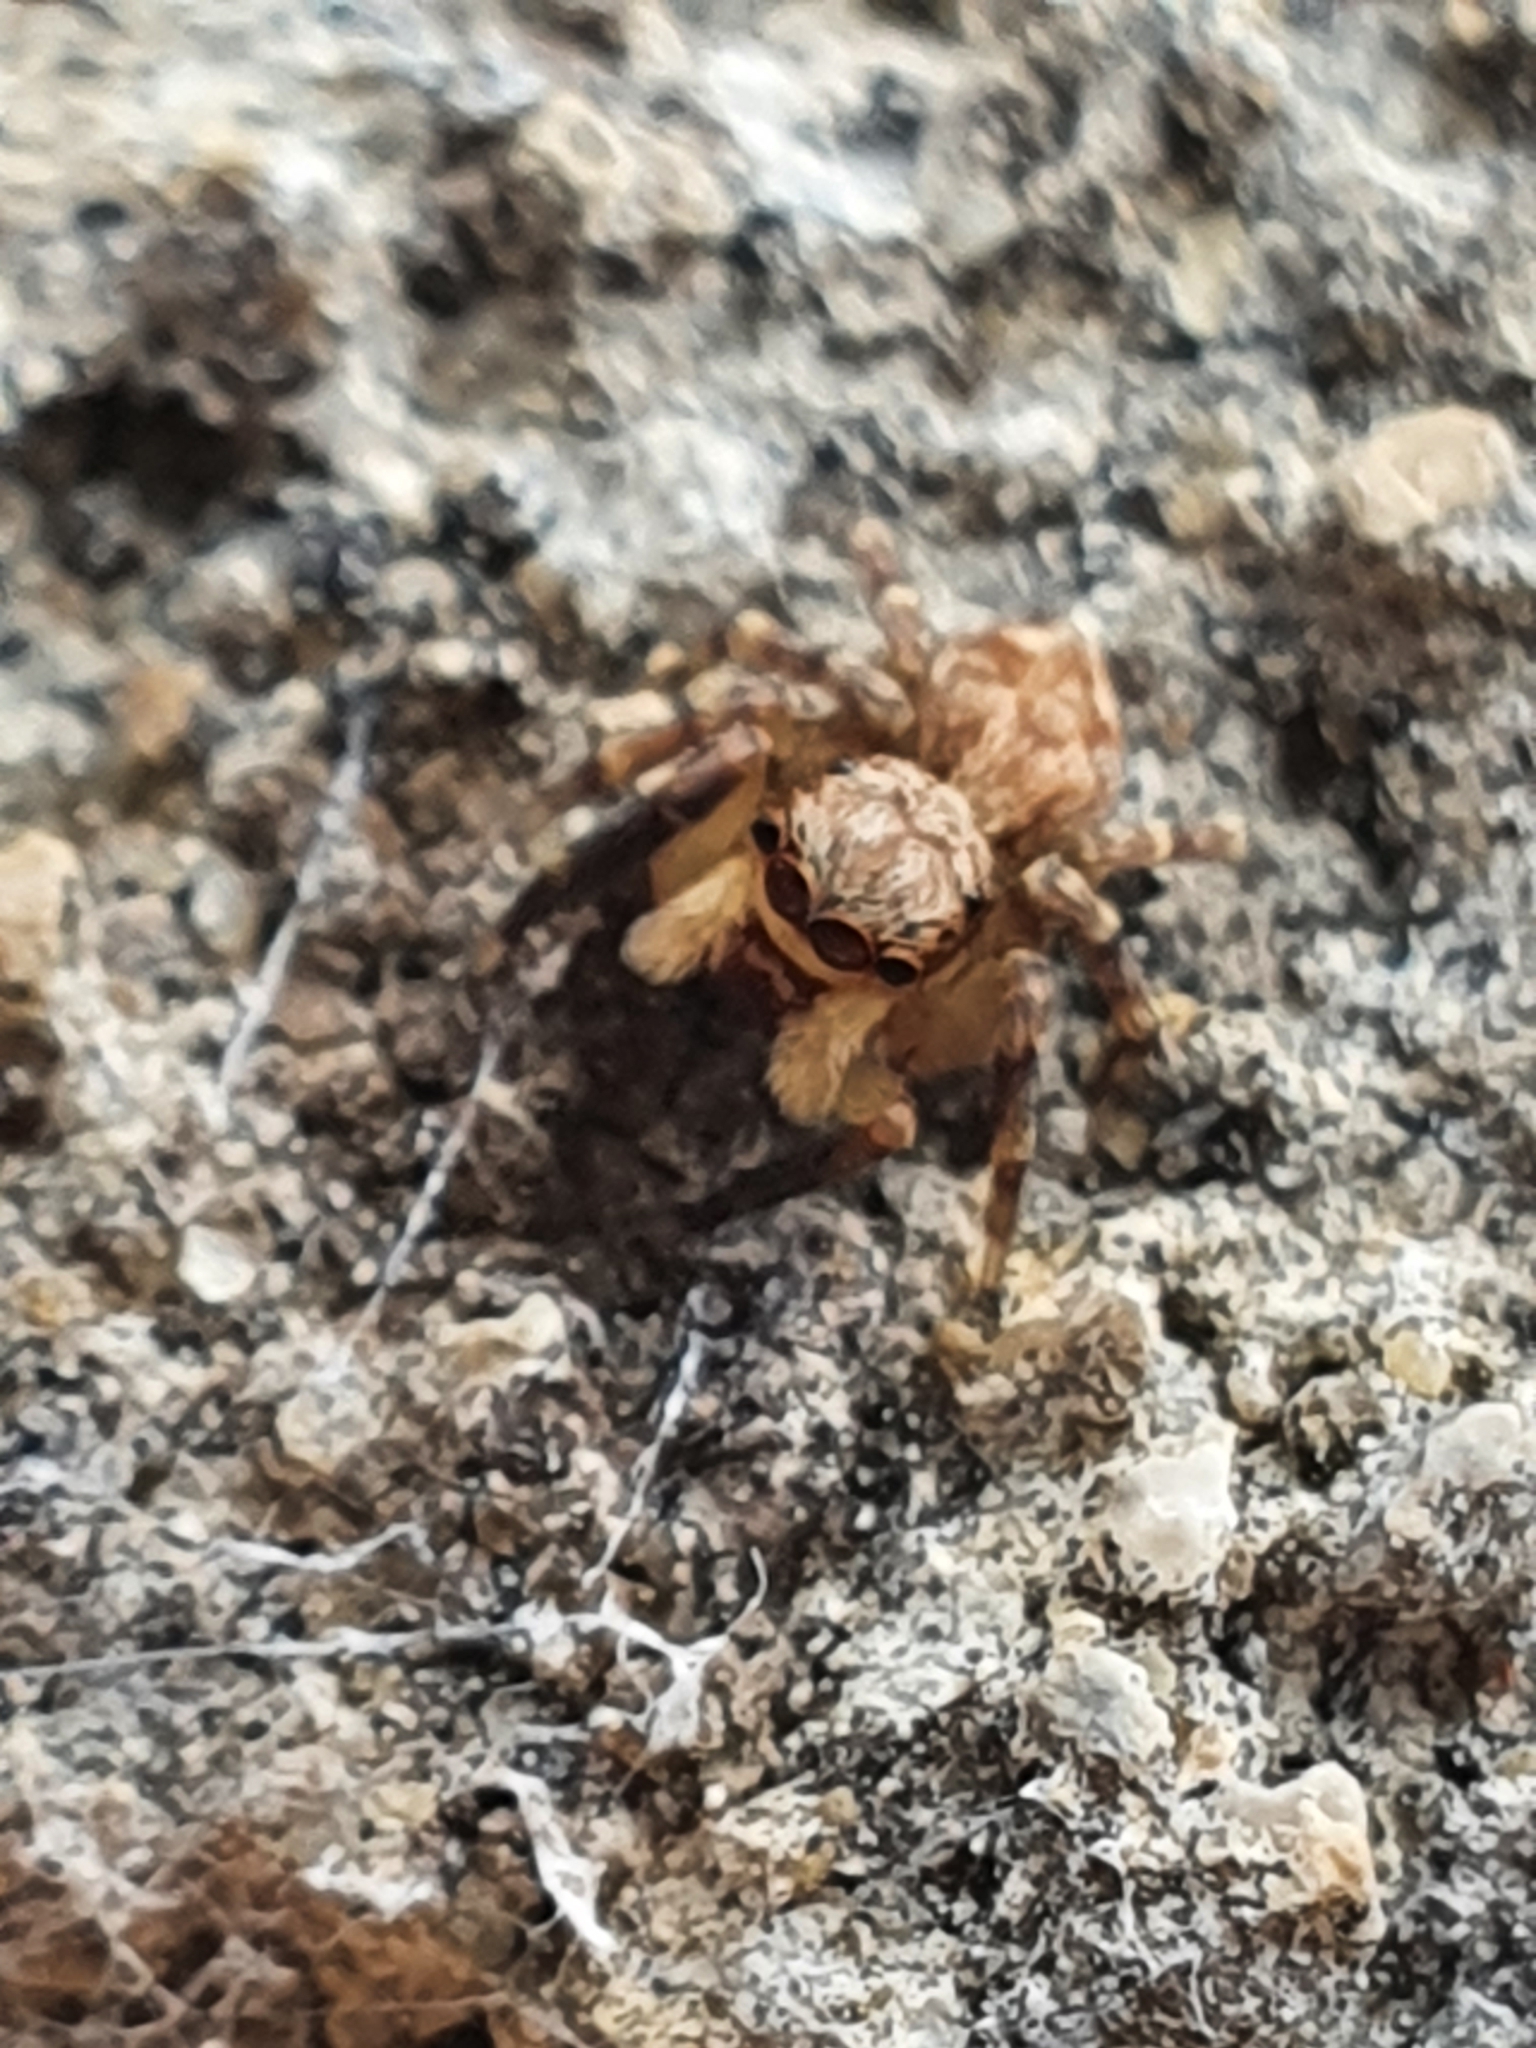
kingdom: Animalia
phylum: Arthropoda
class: Arachnida
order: Araneae
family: Salticidae
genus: Pseudeuophrys
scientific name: Pseudeuophrys vafra
